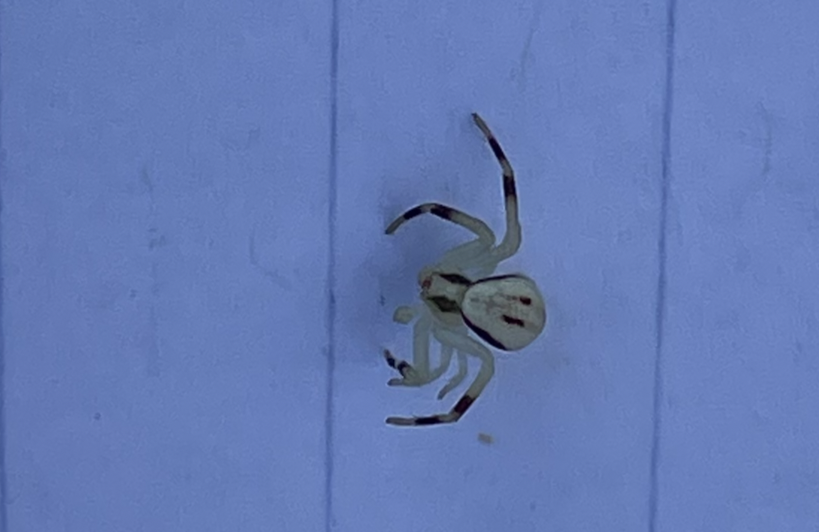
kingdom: Animalia
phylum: Arthropoda
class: Arachnida
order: Araneae
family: Thomisidae
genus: Misumena
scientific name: Misumena vatia
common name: Goldenrod crab spider
